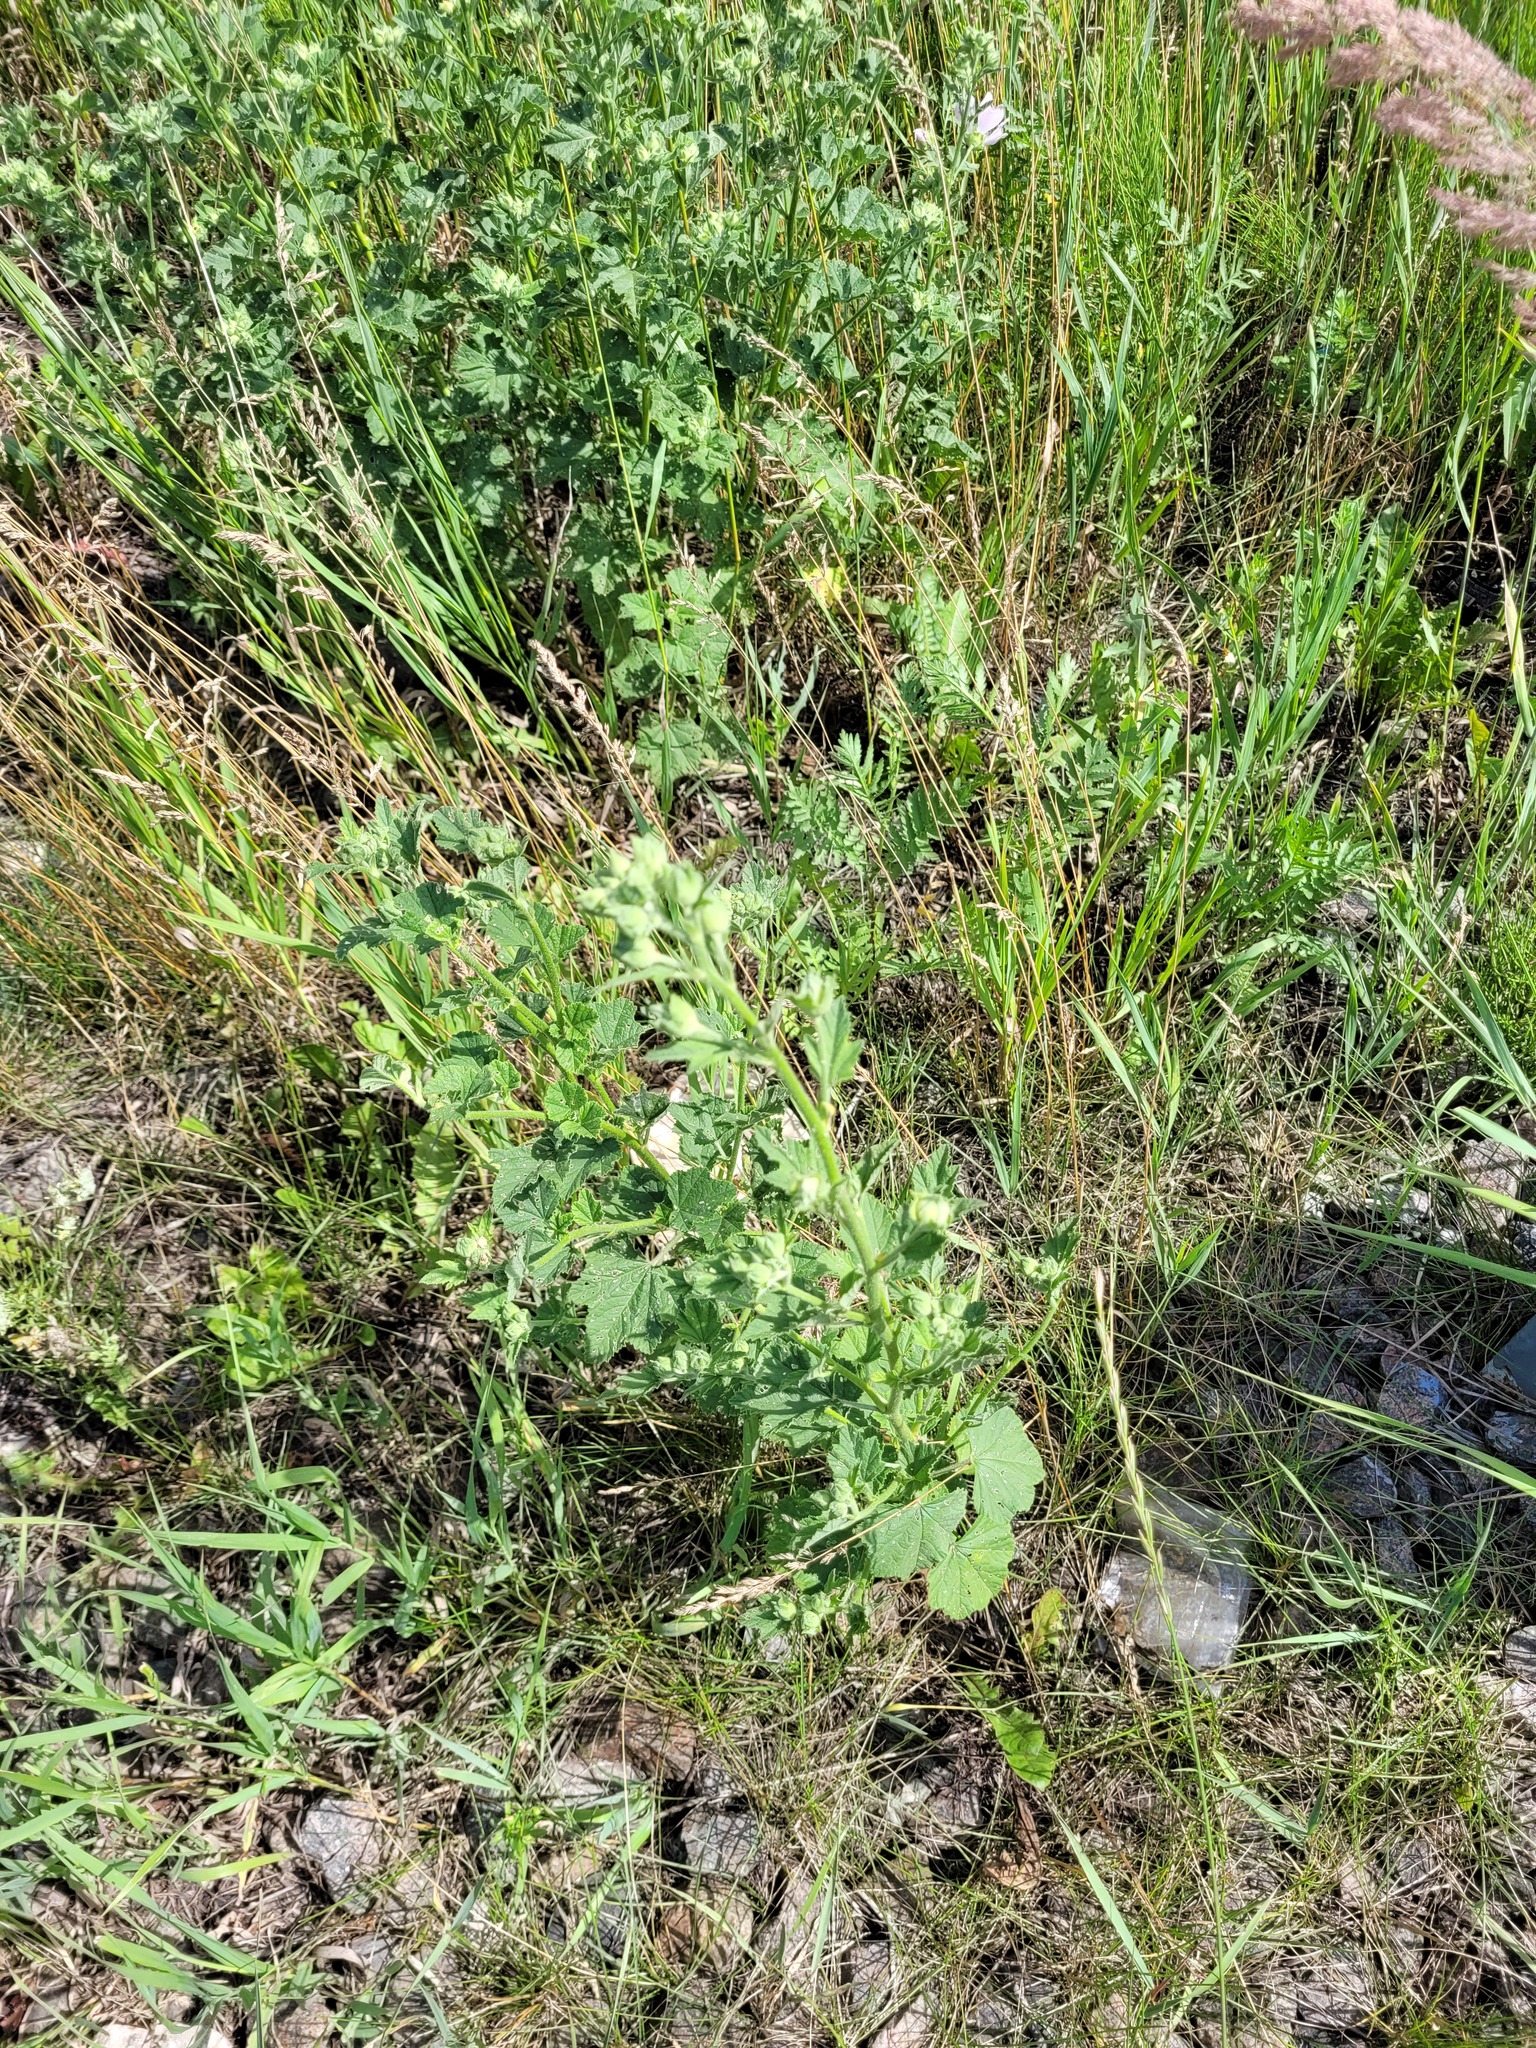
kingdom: Plantae
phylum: Tracheophyta
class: Magnoliopsida
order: Malvales
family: Malvaceae
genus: Malva
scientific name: Malva thuringiaca
